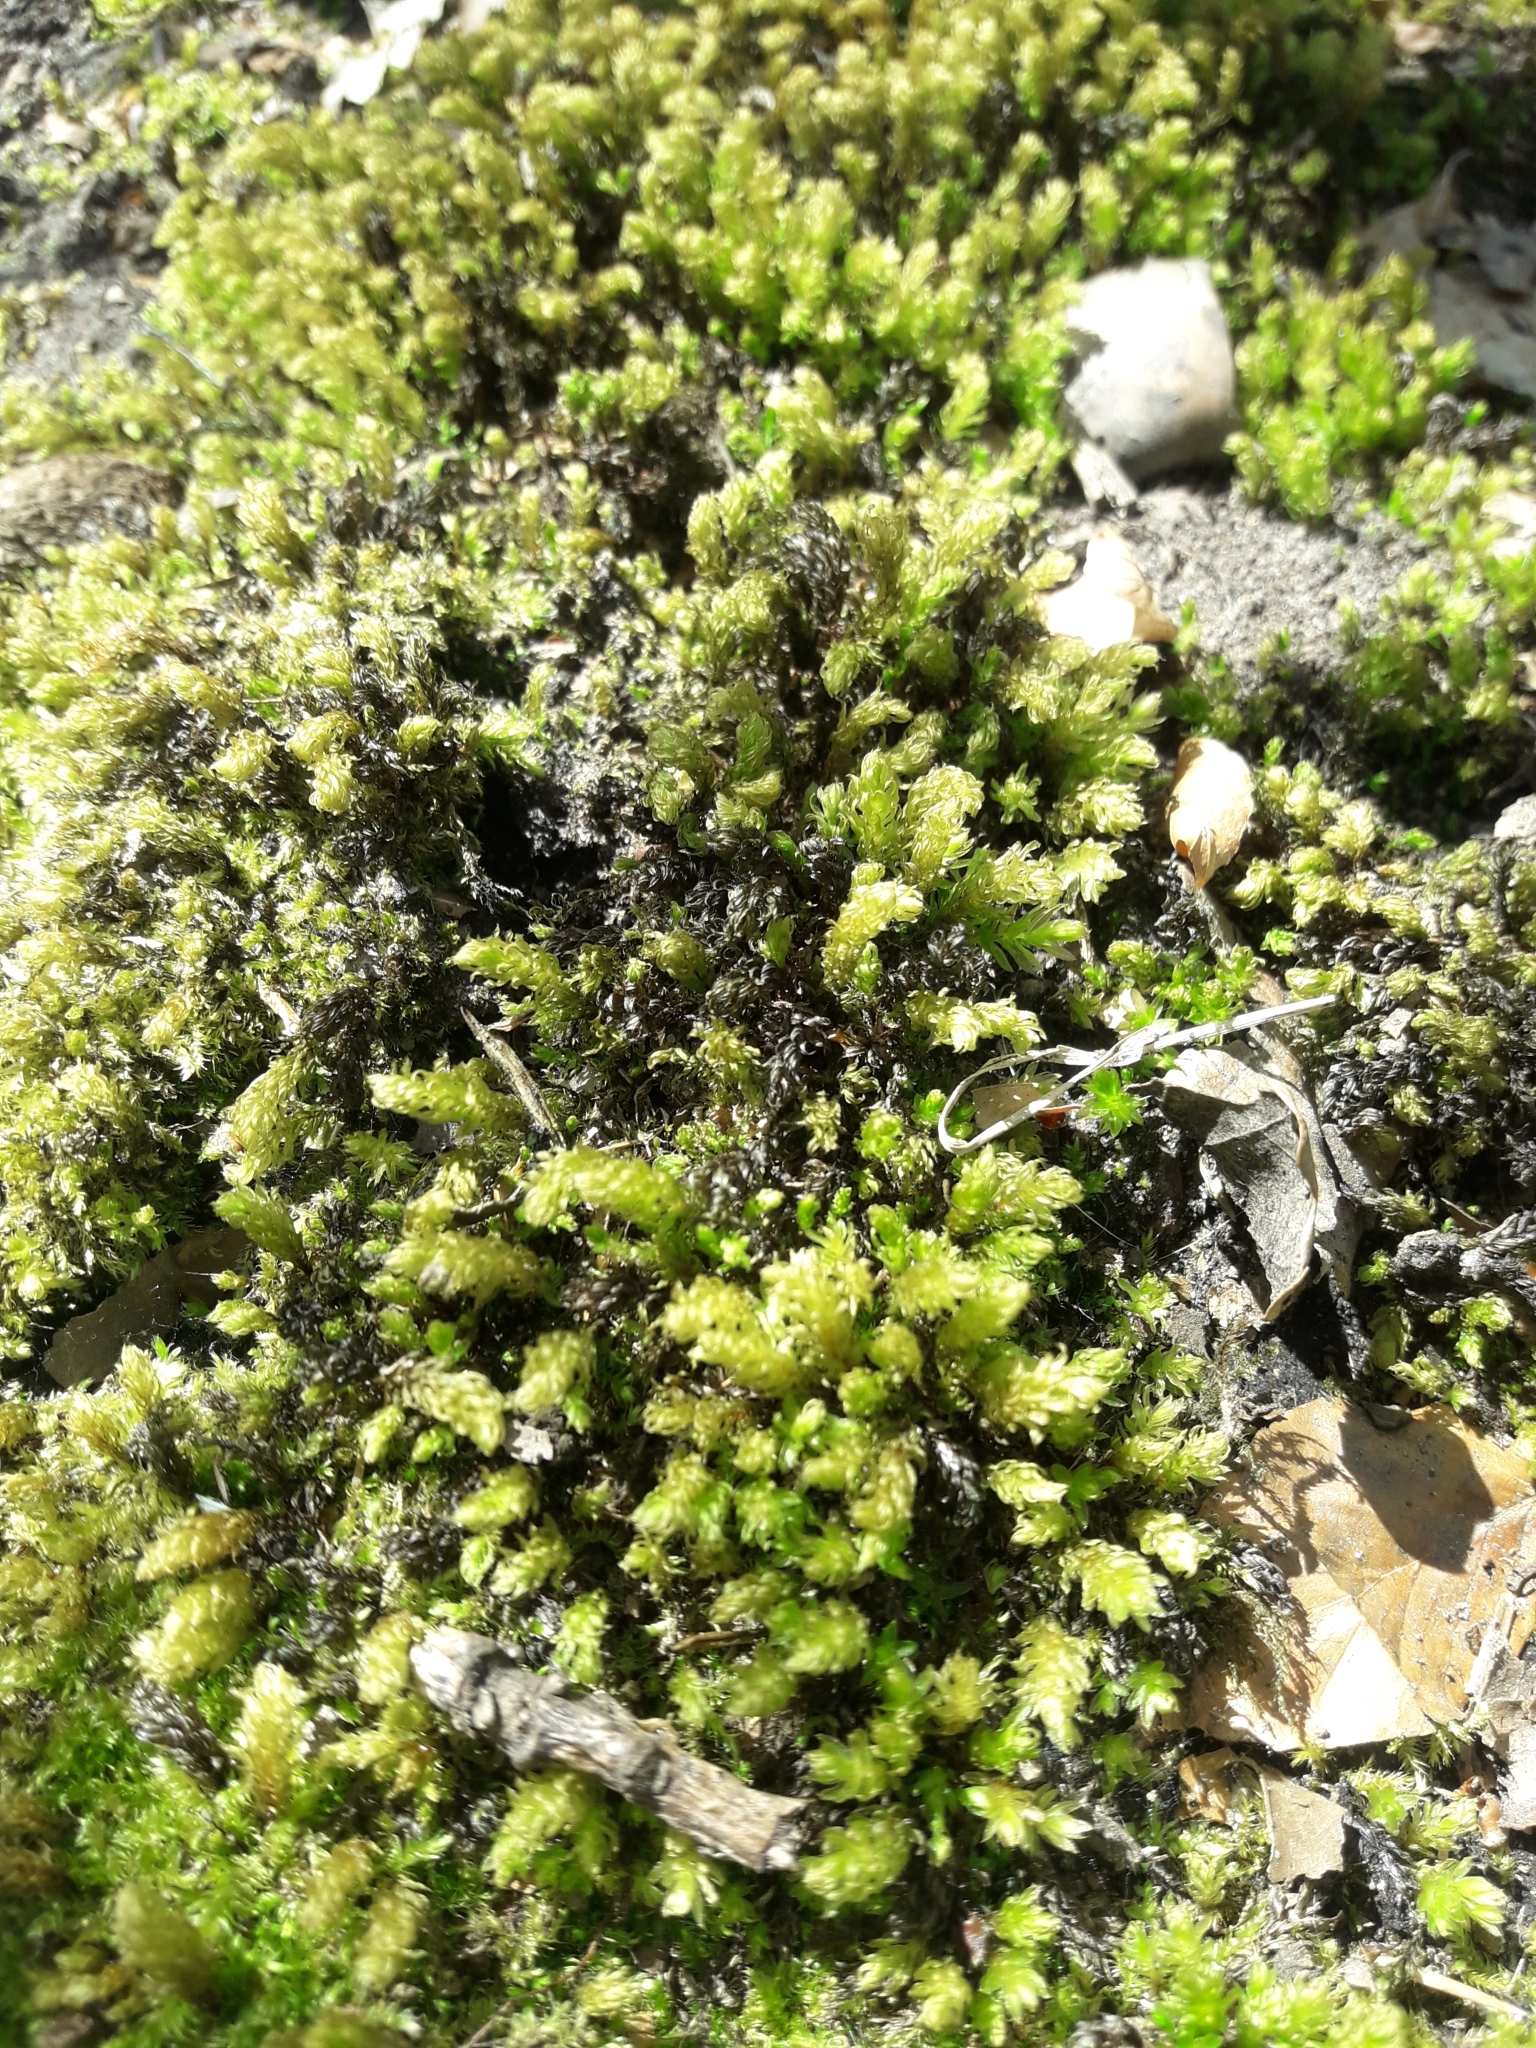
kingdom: Plantae
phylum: Bryophyta
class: Bryopsida
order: Bryales
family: Mniaceae
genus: Mnium
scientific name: Mnium hornum
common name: Swan's-neck leafy moss
